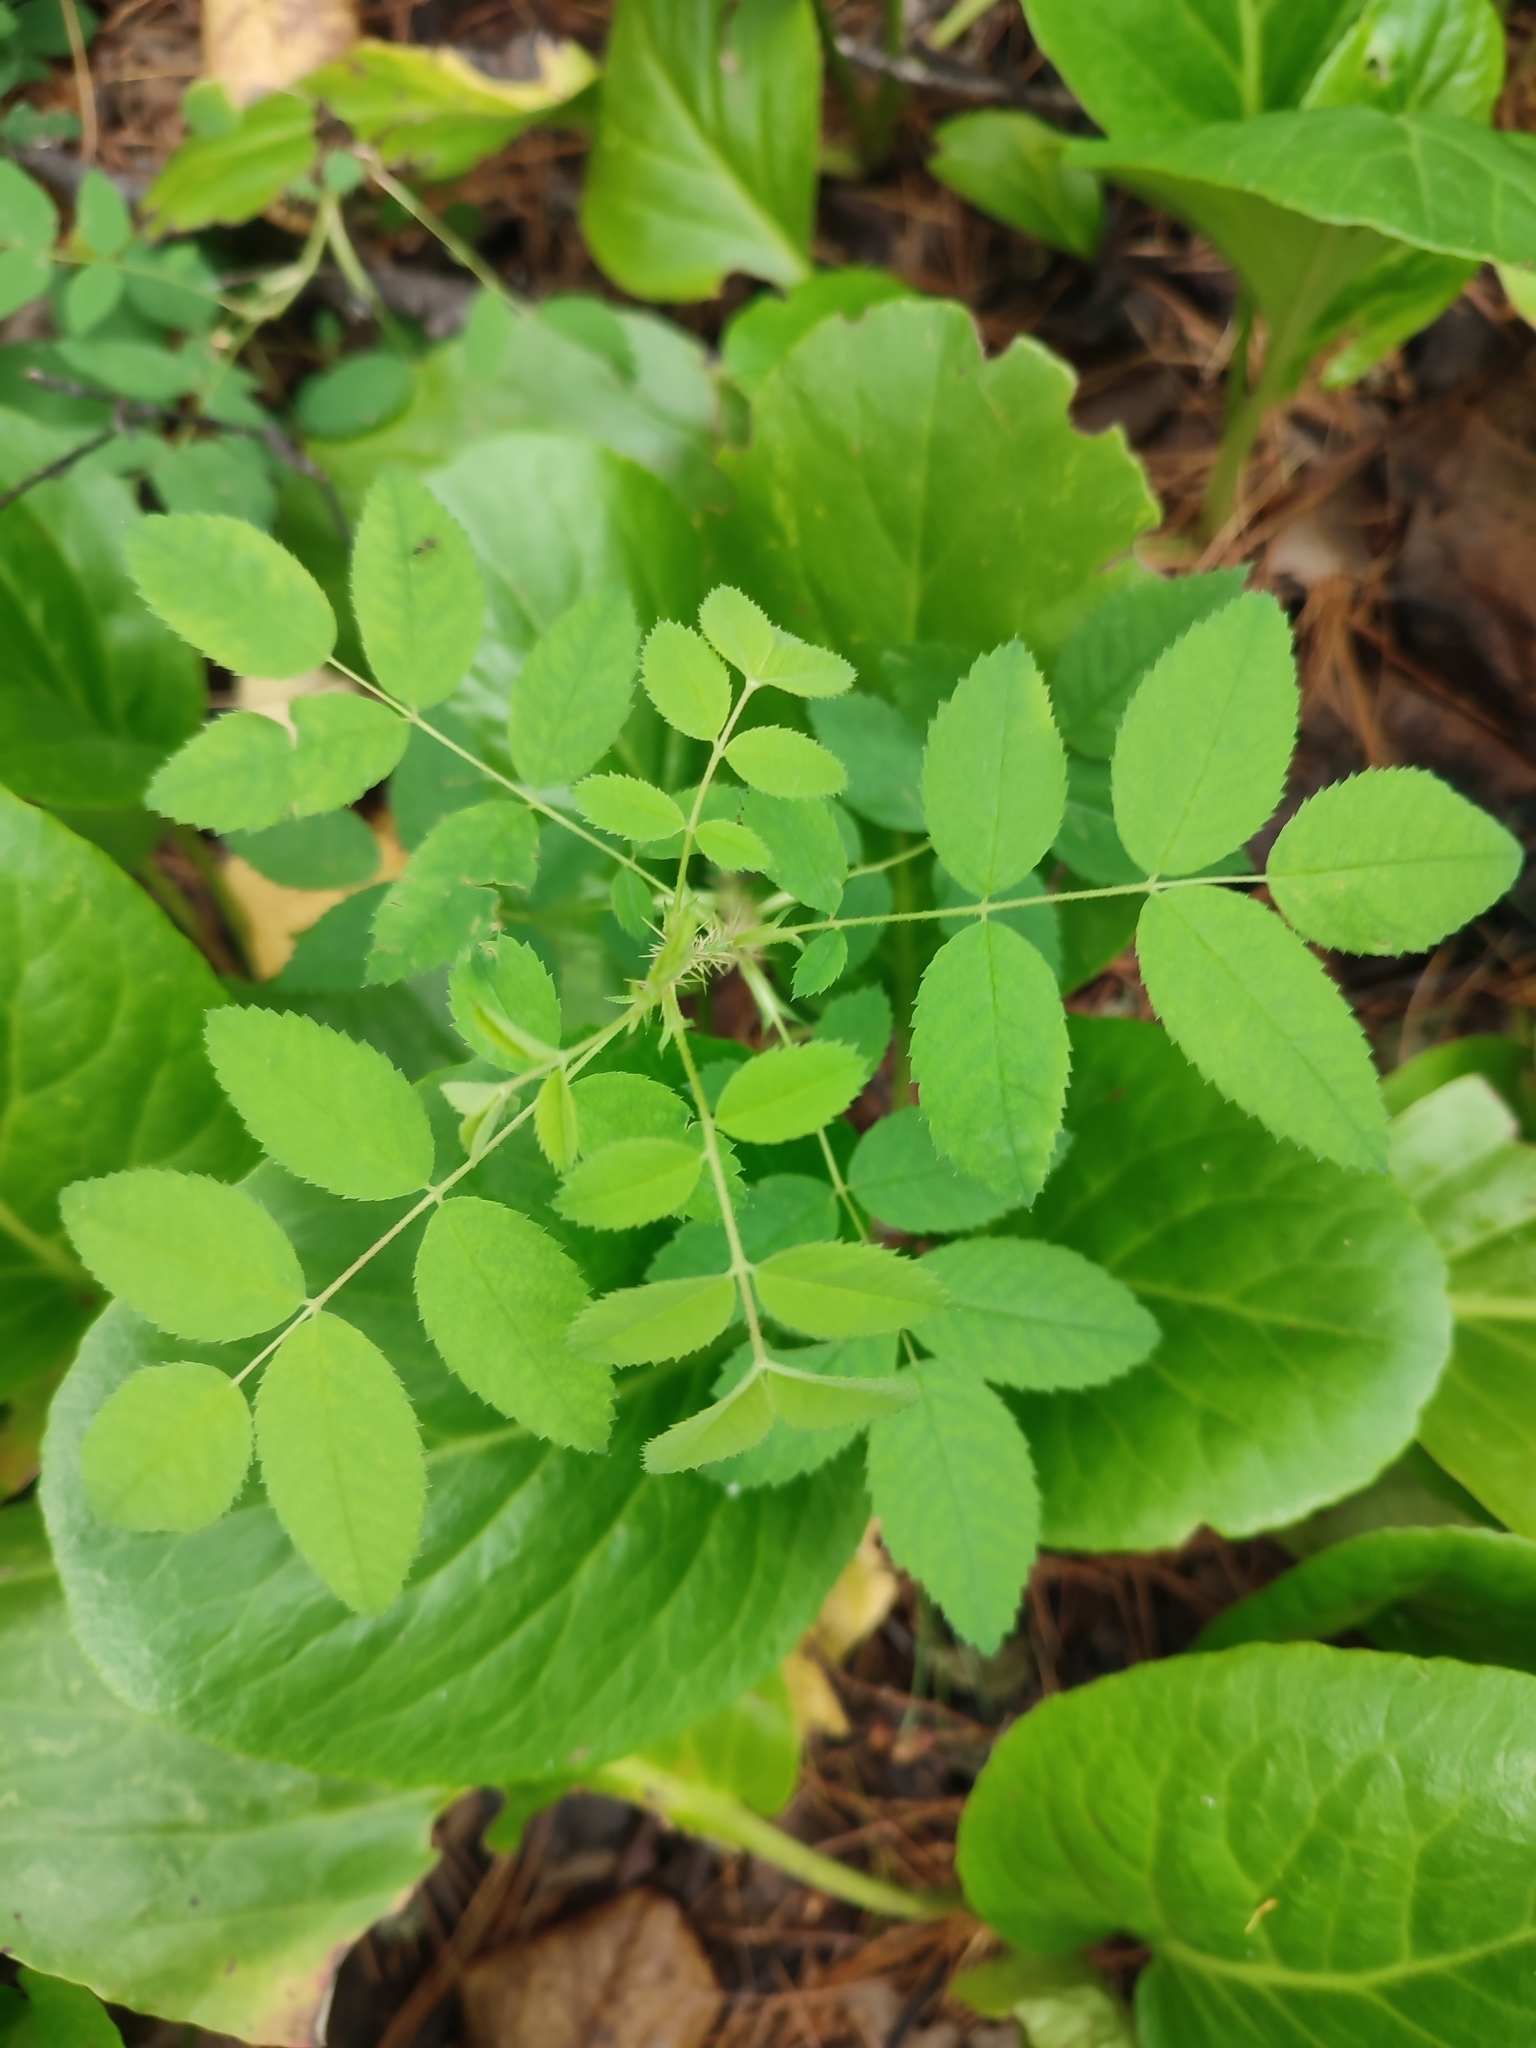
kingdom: Plantae
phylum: Tracheophyta
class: Magnoliopsida
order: Rosales
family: Rosaceae
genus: Rosa
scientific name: Rosa acicularis
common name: Prickly rose
